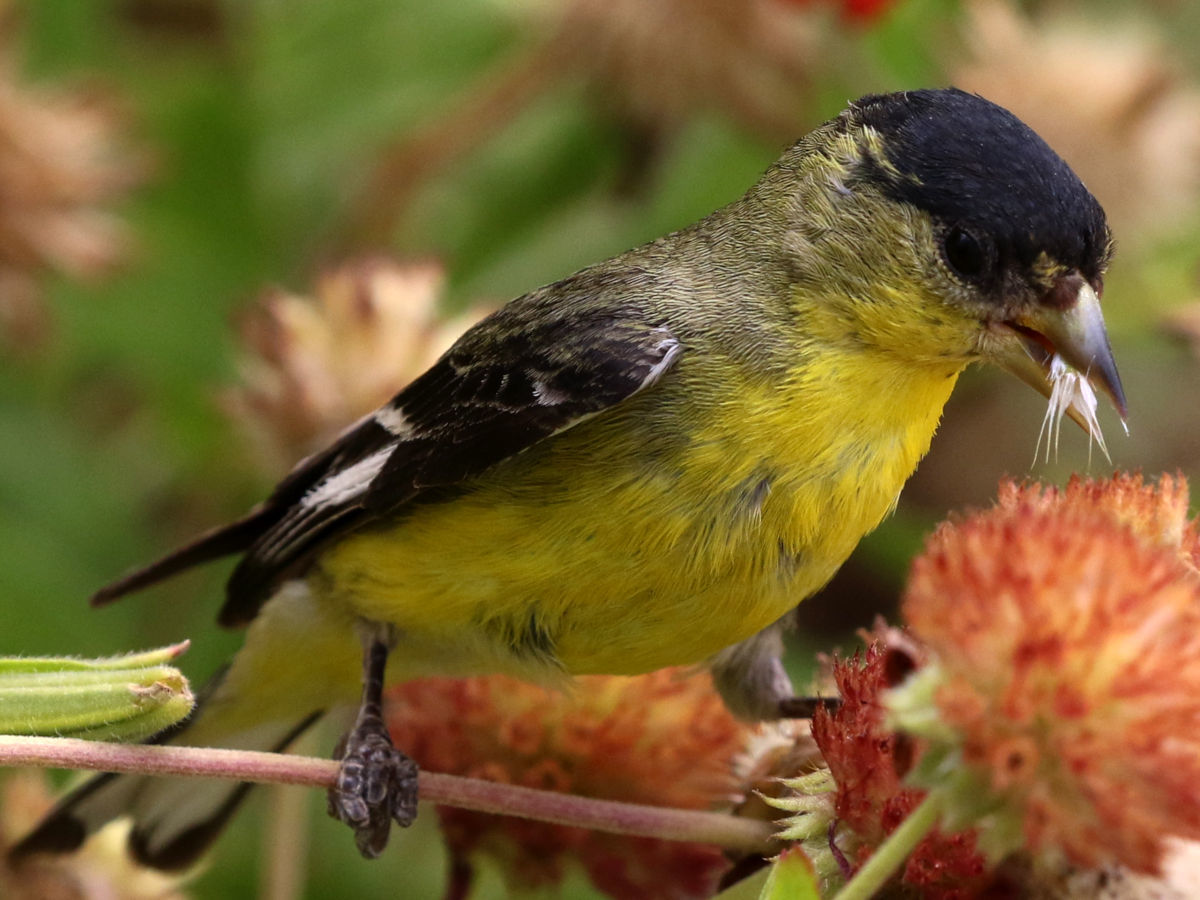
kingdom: Animalia
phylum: Chordata
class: Aves
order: Passeriformes
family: Fringillidae
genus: Spinus
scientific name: Spinus psaltria
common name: Lesser goldfinch
